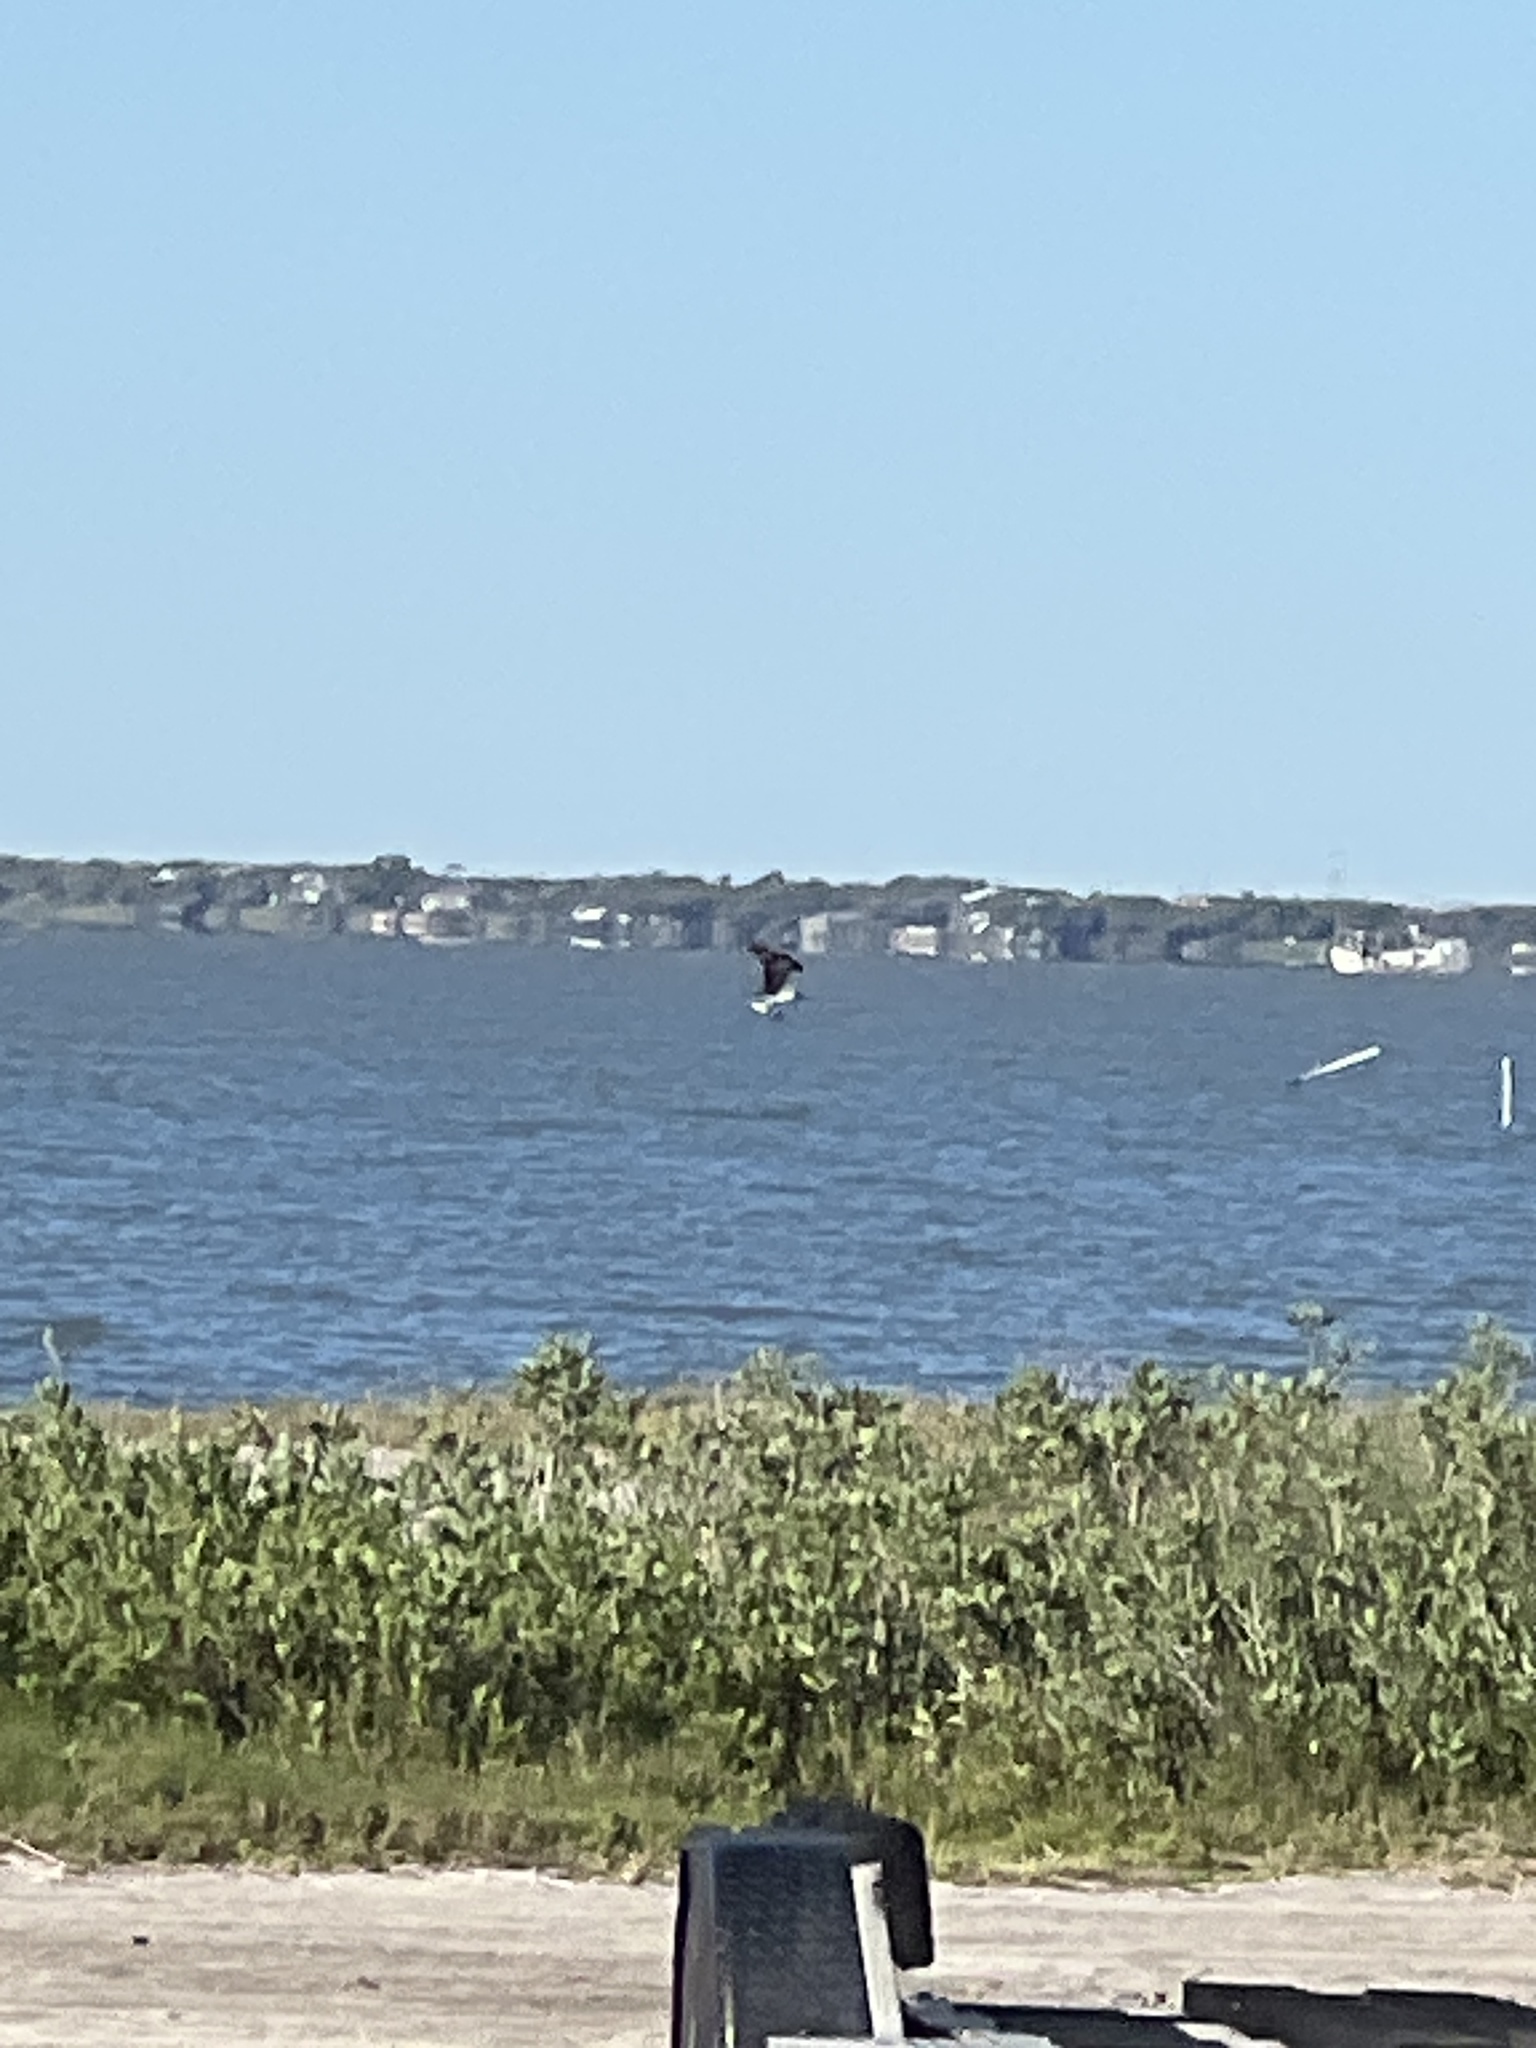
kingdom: Animalia
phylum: Chordata
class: Aves
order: Accipitriformes
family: Pandionidae
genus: Pandion
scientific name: Pandion haliaetus
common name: Osprey
